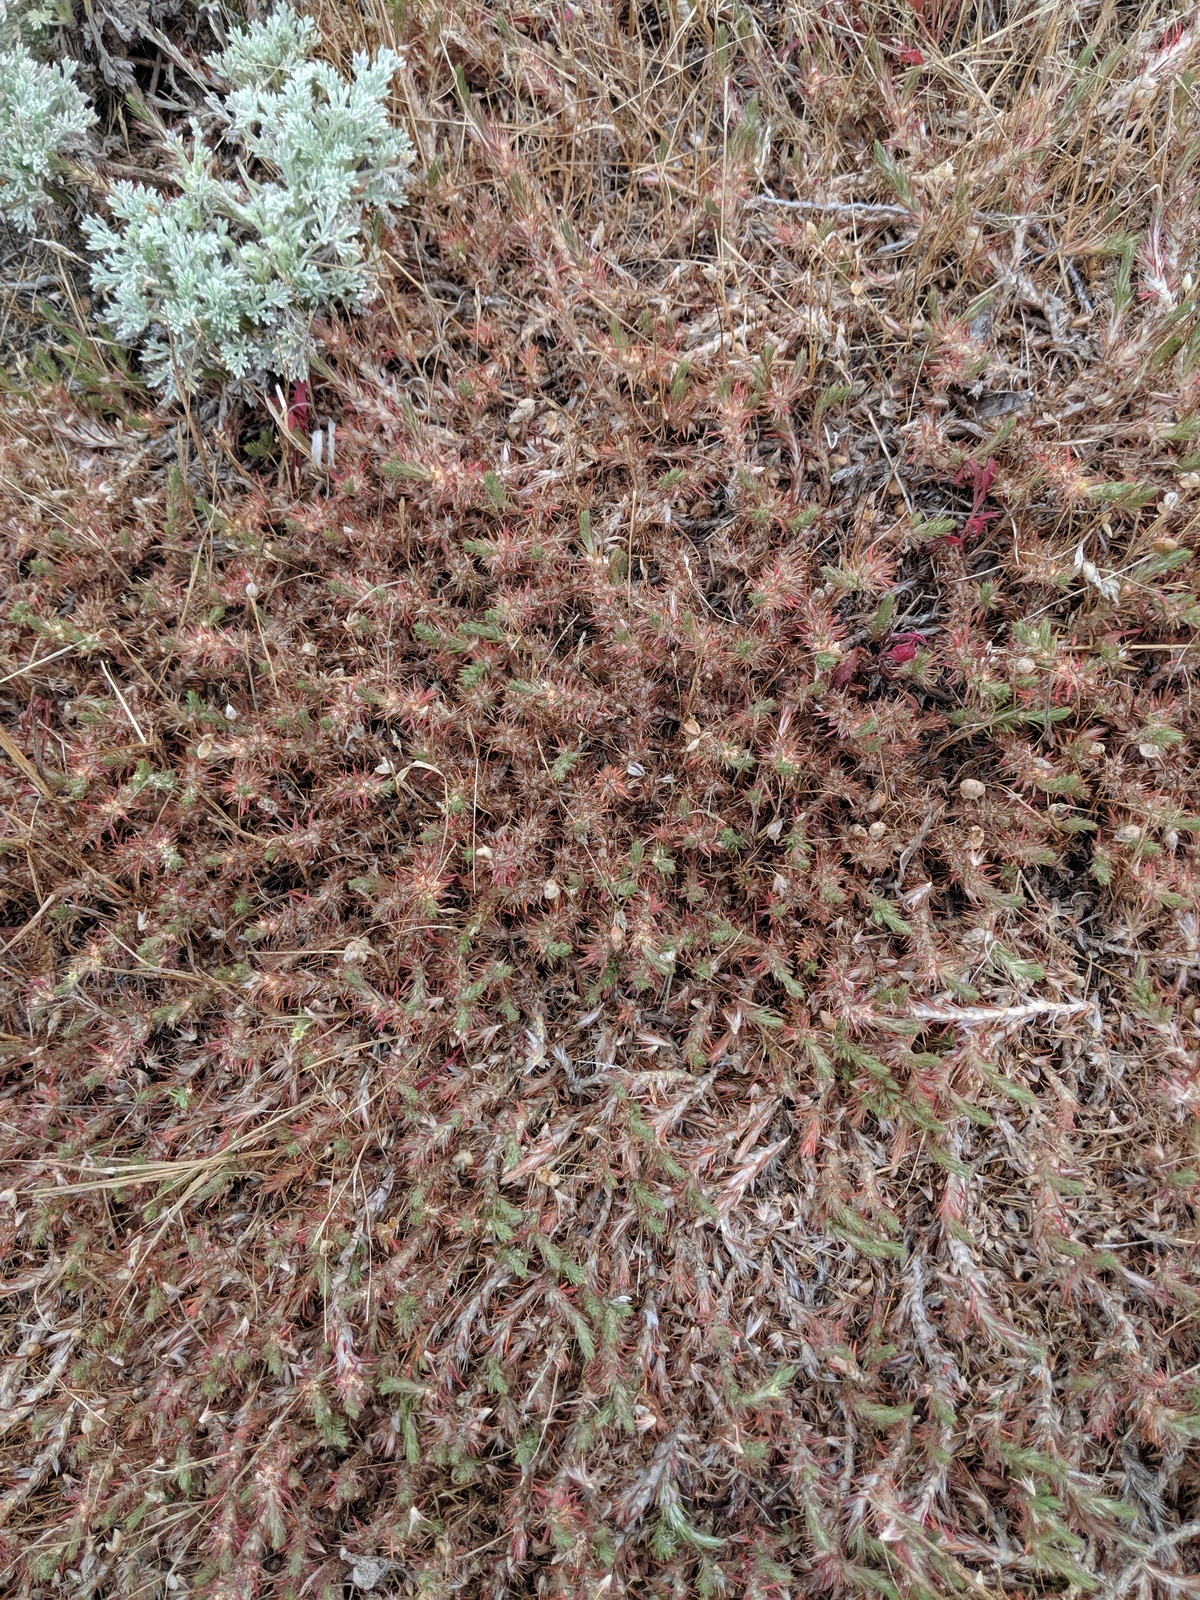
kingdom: Plantae
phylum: Tracheophyta
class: Magnoliopsida
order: Caryophyllales
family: Caryophyllaceae
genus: Cardionema
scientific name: Cardionema ramosissima
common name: Sandcarpet
